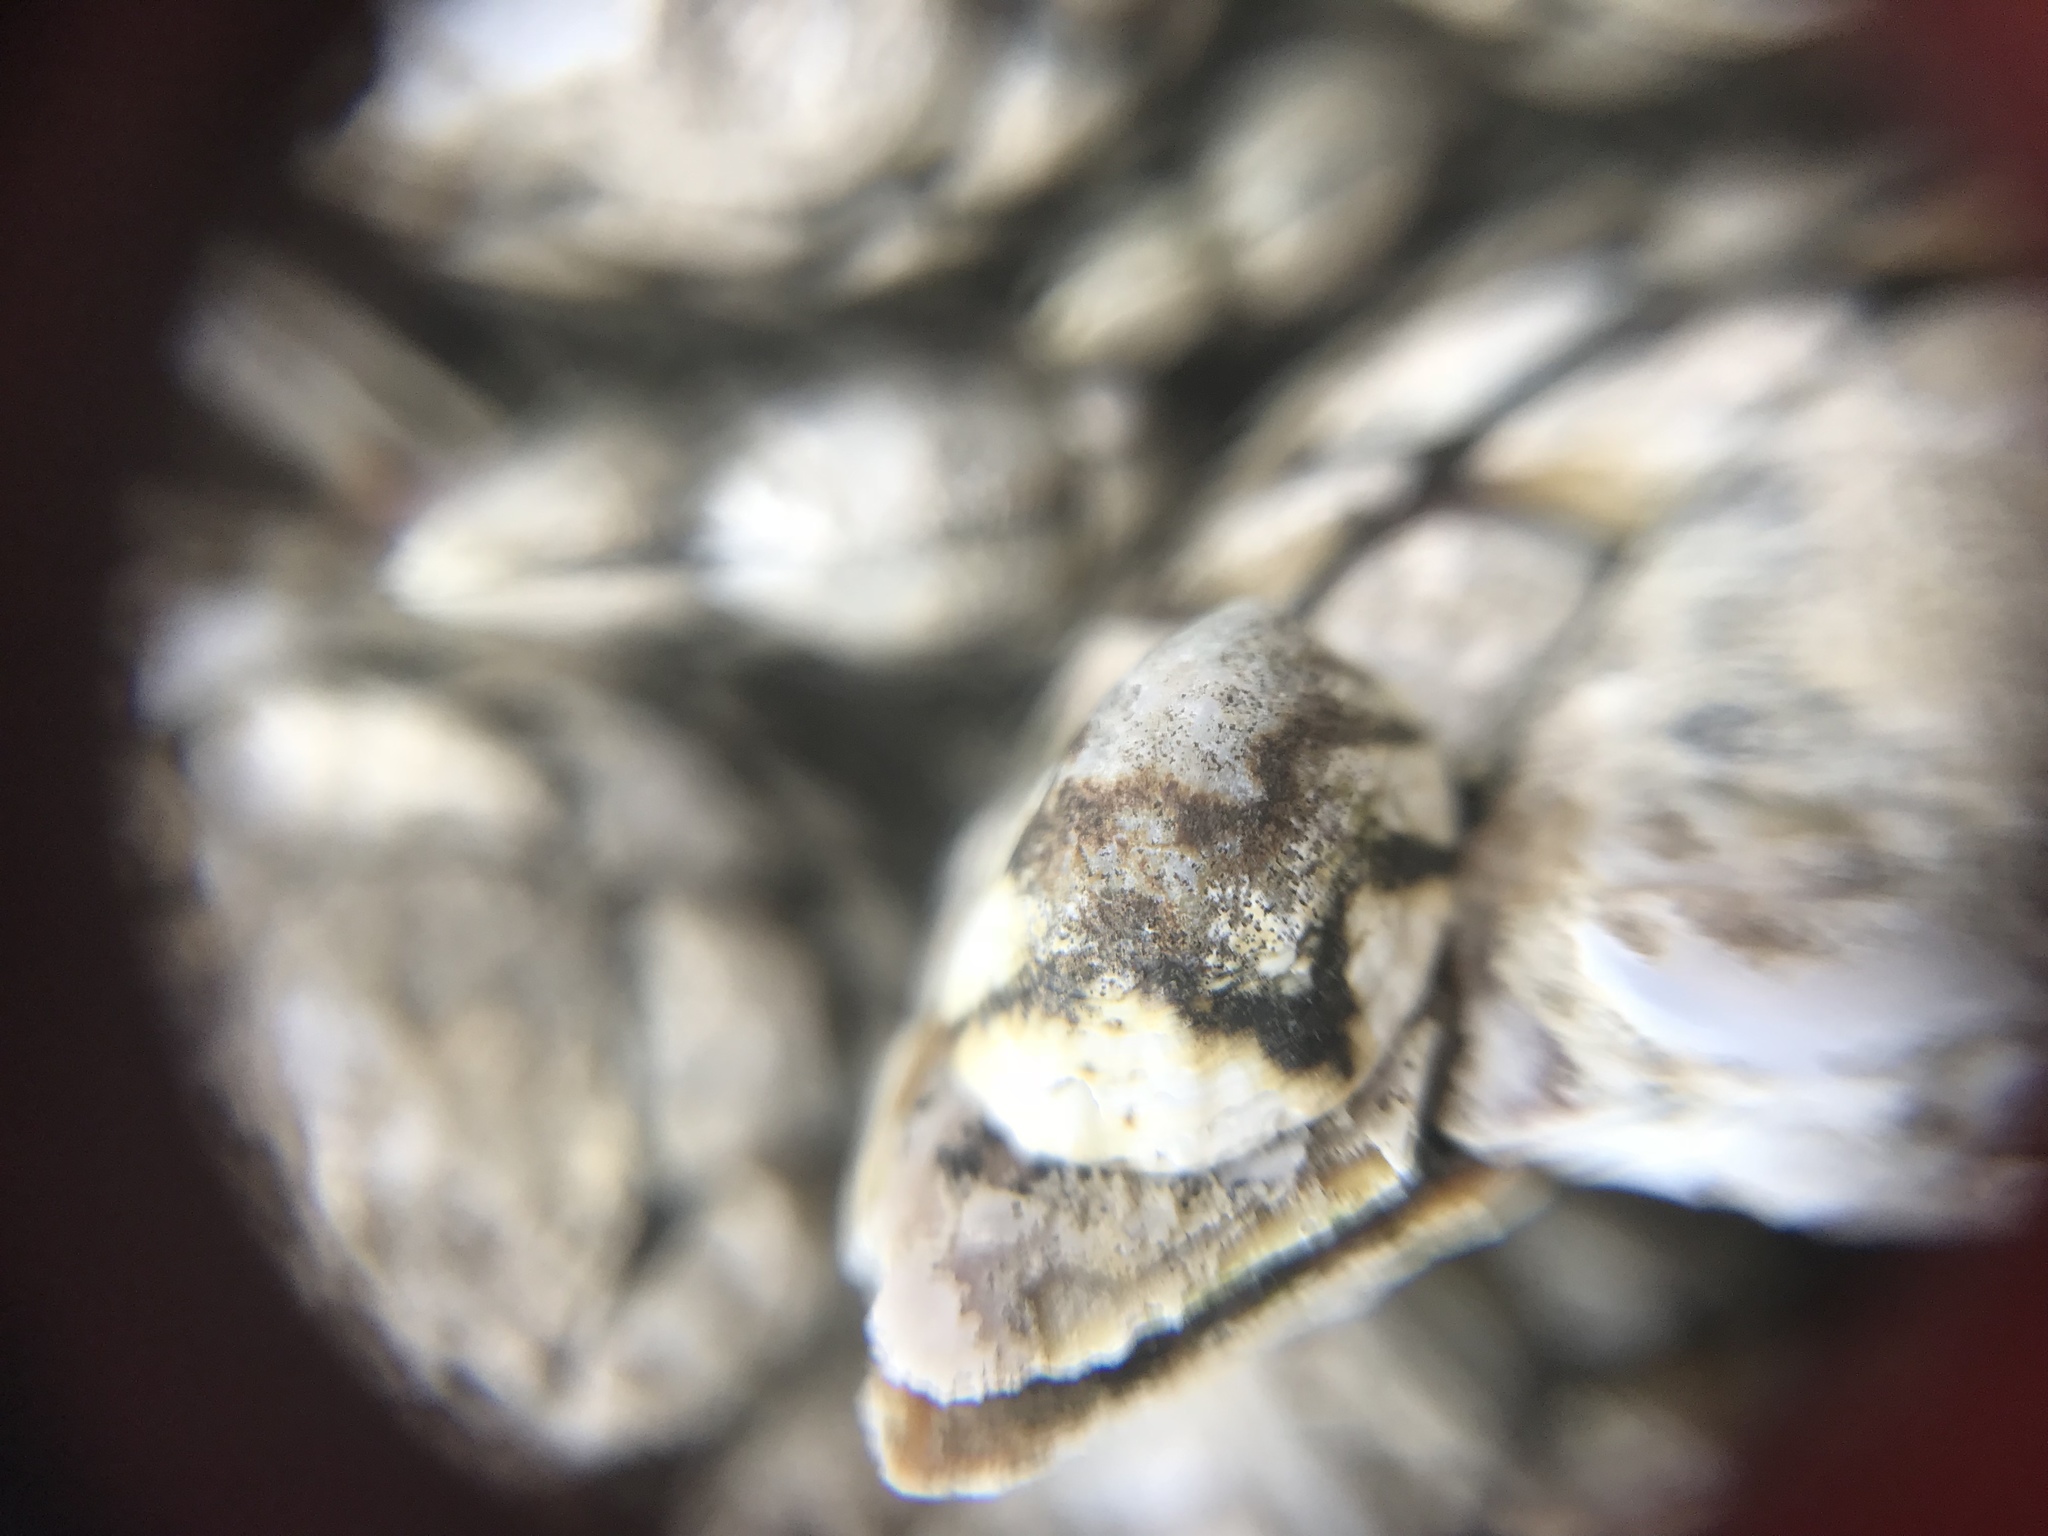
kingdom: Animalia
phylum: Mollusca
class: Gastropoda
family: Lottiidae
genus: Lottia
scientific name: Lottia digitalis
